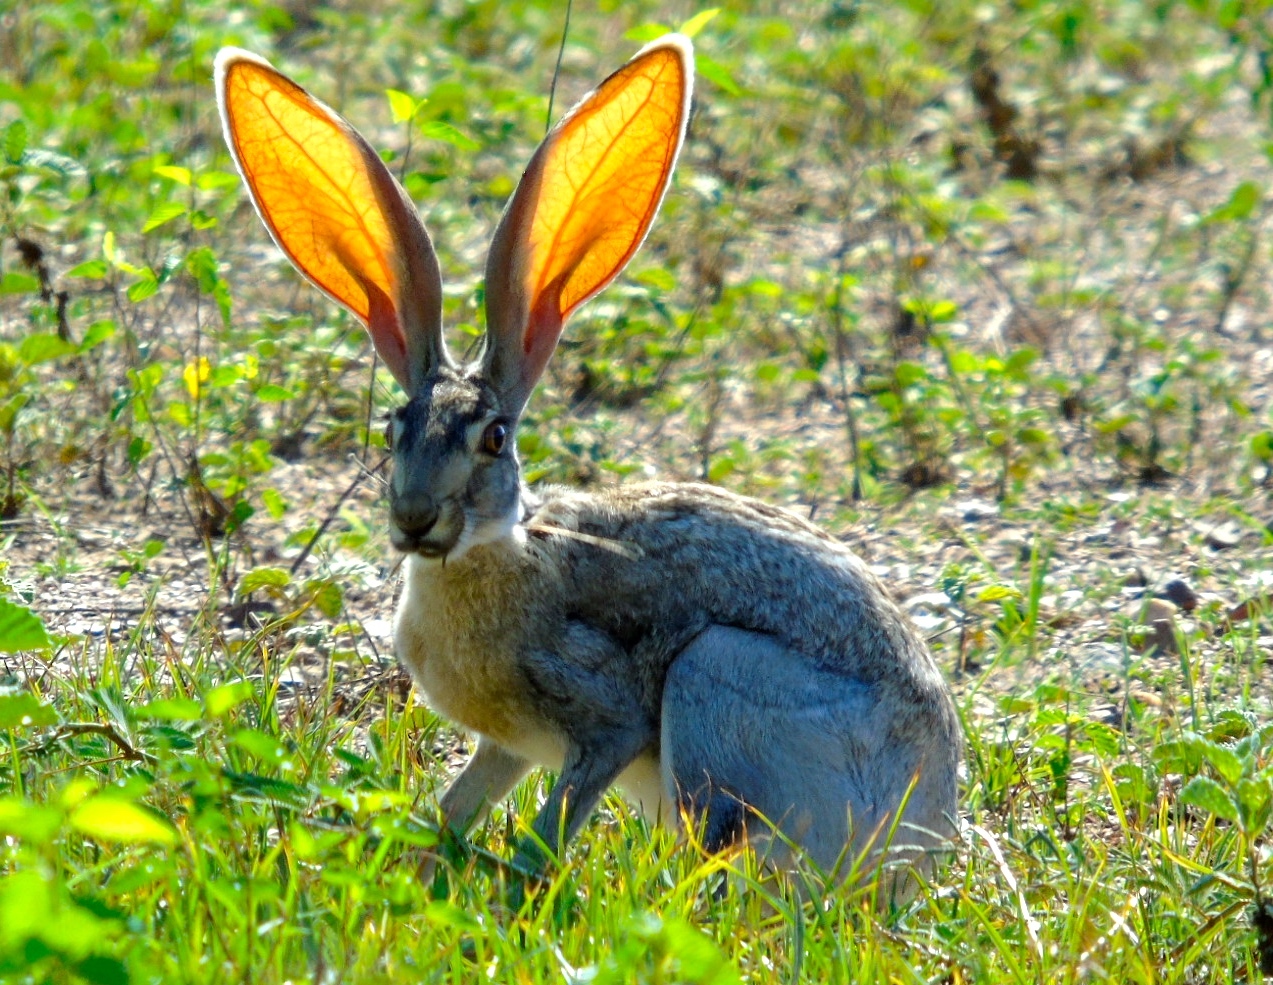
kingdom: Animalia
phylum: Chordata
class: Mammalia
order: Lagomorpha
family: Leporidae
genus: Lepus
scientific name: Lepus alleni
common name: Antelope jackrabbit
